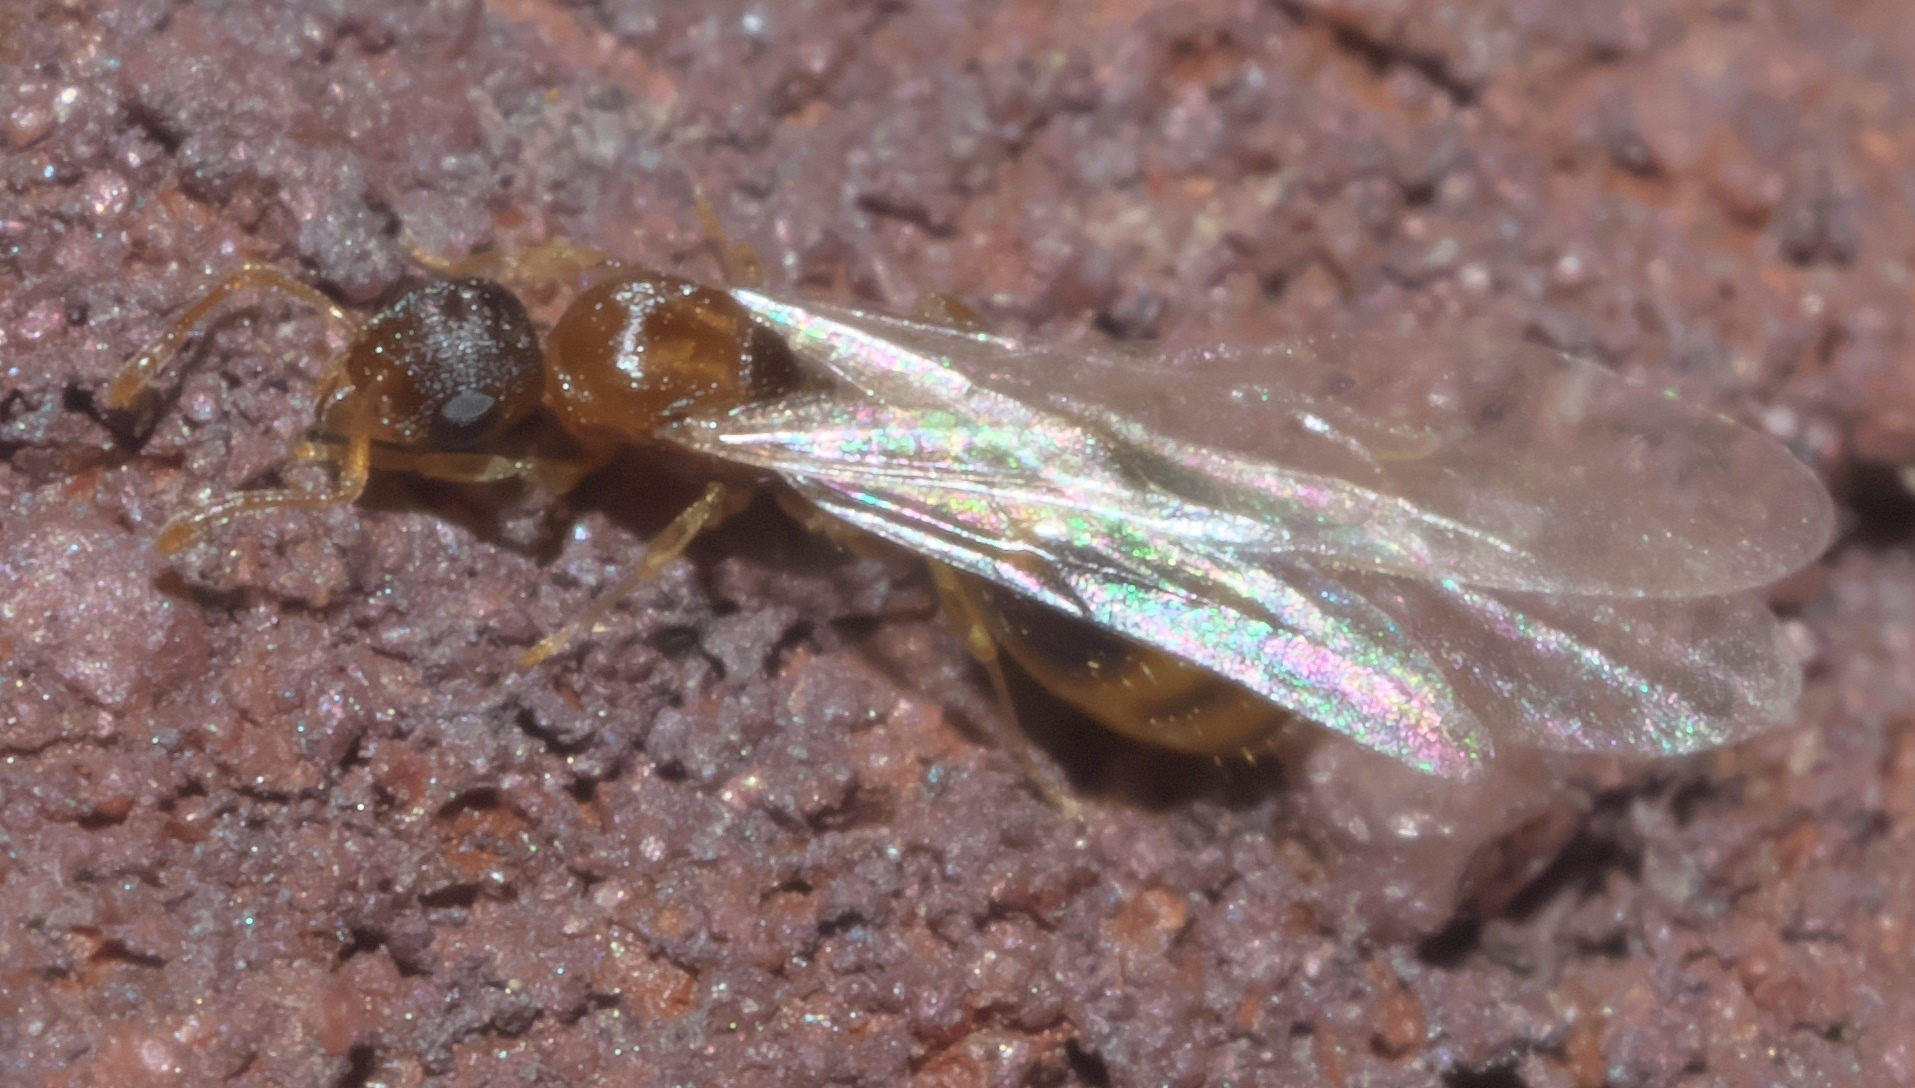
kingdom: Animalia
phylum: Arthropoda
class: Insecta
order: Hymenoptera
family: Formicidae
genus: Temnothorax
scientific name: Temnothorax curvispinosus
